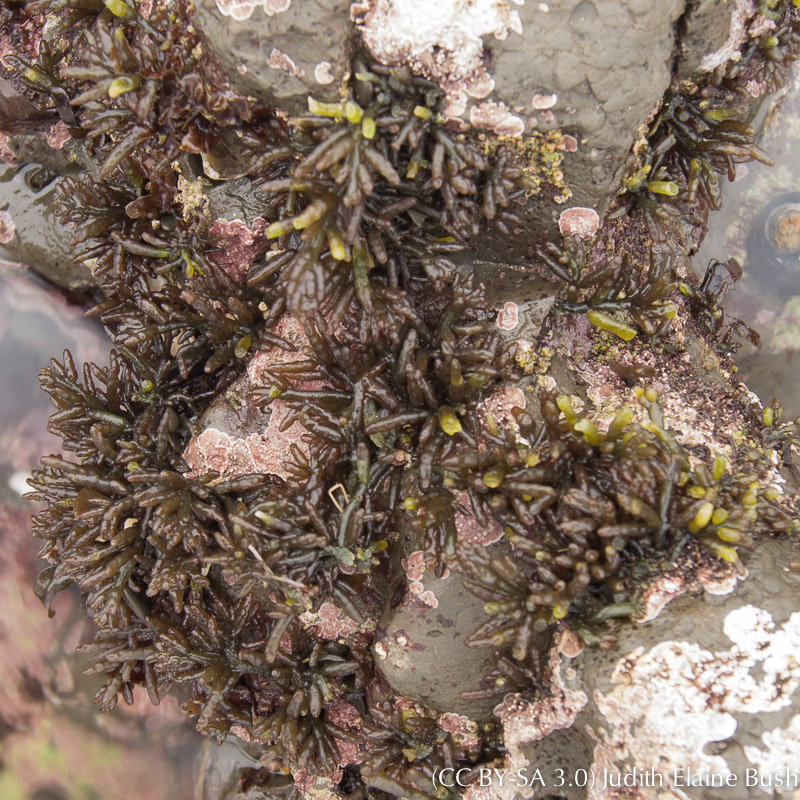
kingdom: Plantae
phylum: Rhodophyta
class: Florideophyceae
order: Rhodymeniales
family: Champiaceae
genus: Neogastroclonium
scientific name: Neogastroclonium subarticulatum
